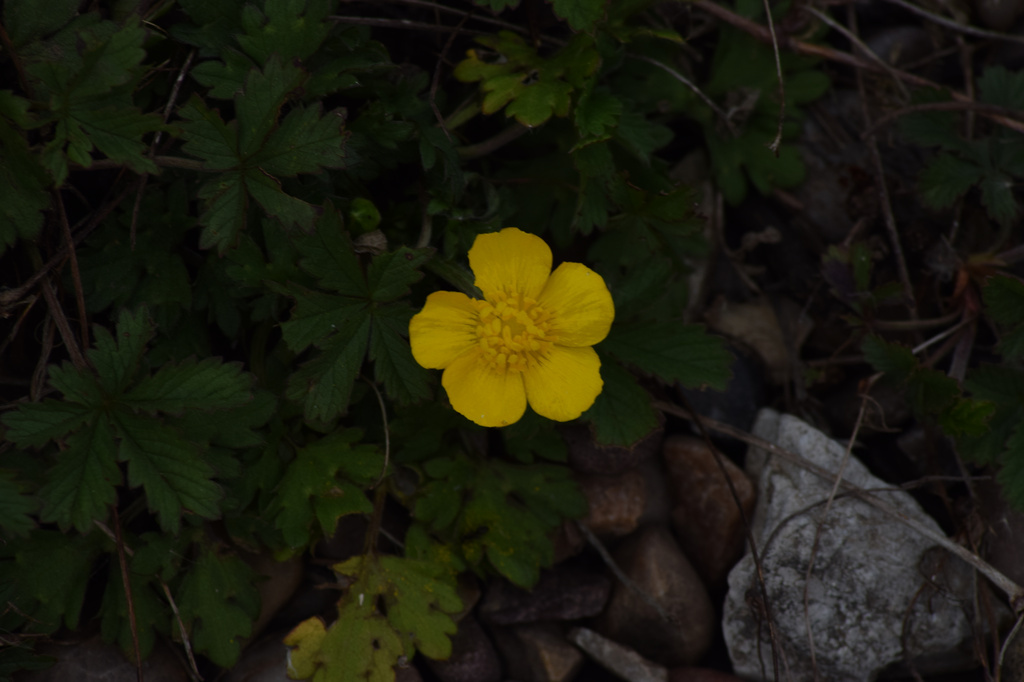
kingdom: Plantae
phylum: Tracheophyta
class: Magnoliopsida
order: Rosales
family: Rosaceae
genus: Potentilla
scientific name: Potentilla reptans
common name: Creeping cinquefoil
